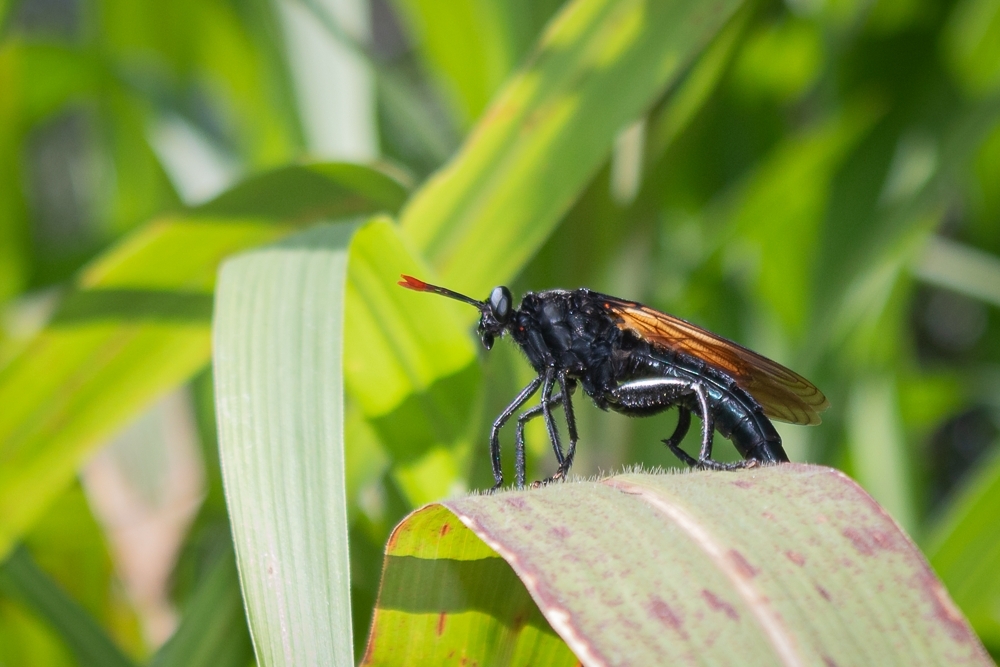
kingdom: Animalia
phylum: Arthropoda
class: Insecta
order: Diptera
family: Mydidae
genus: Gauromydas
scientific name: Gauromydas heros
